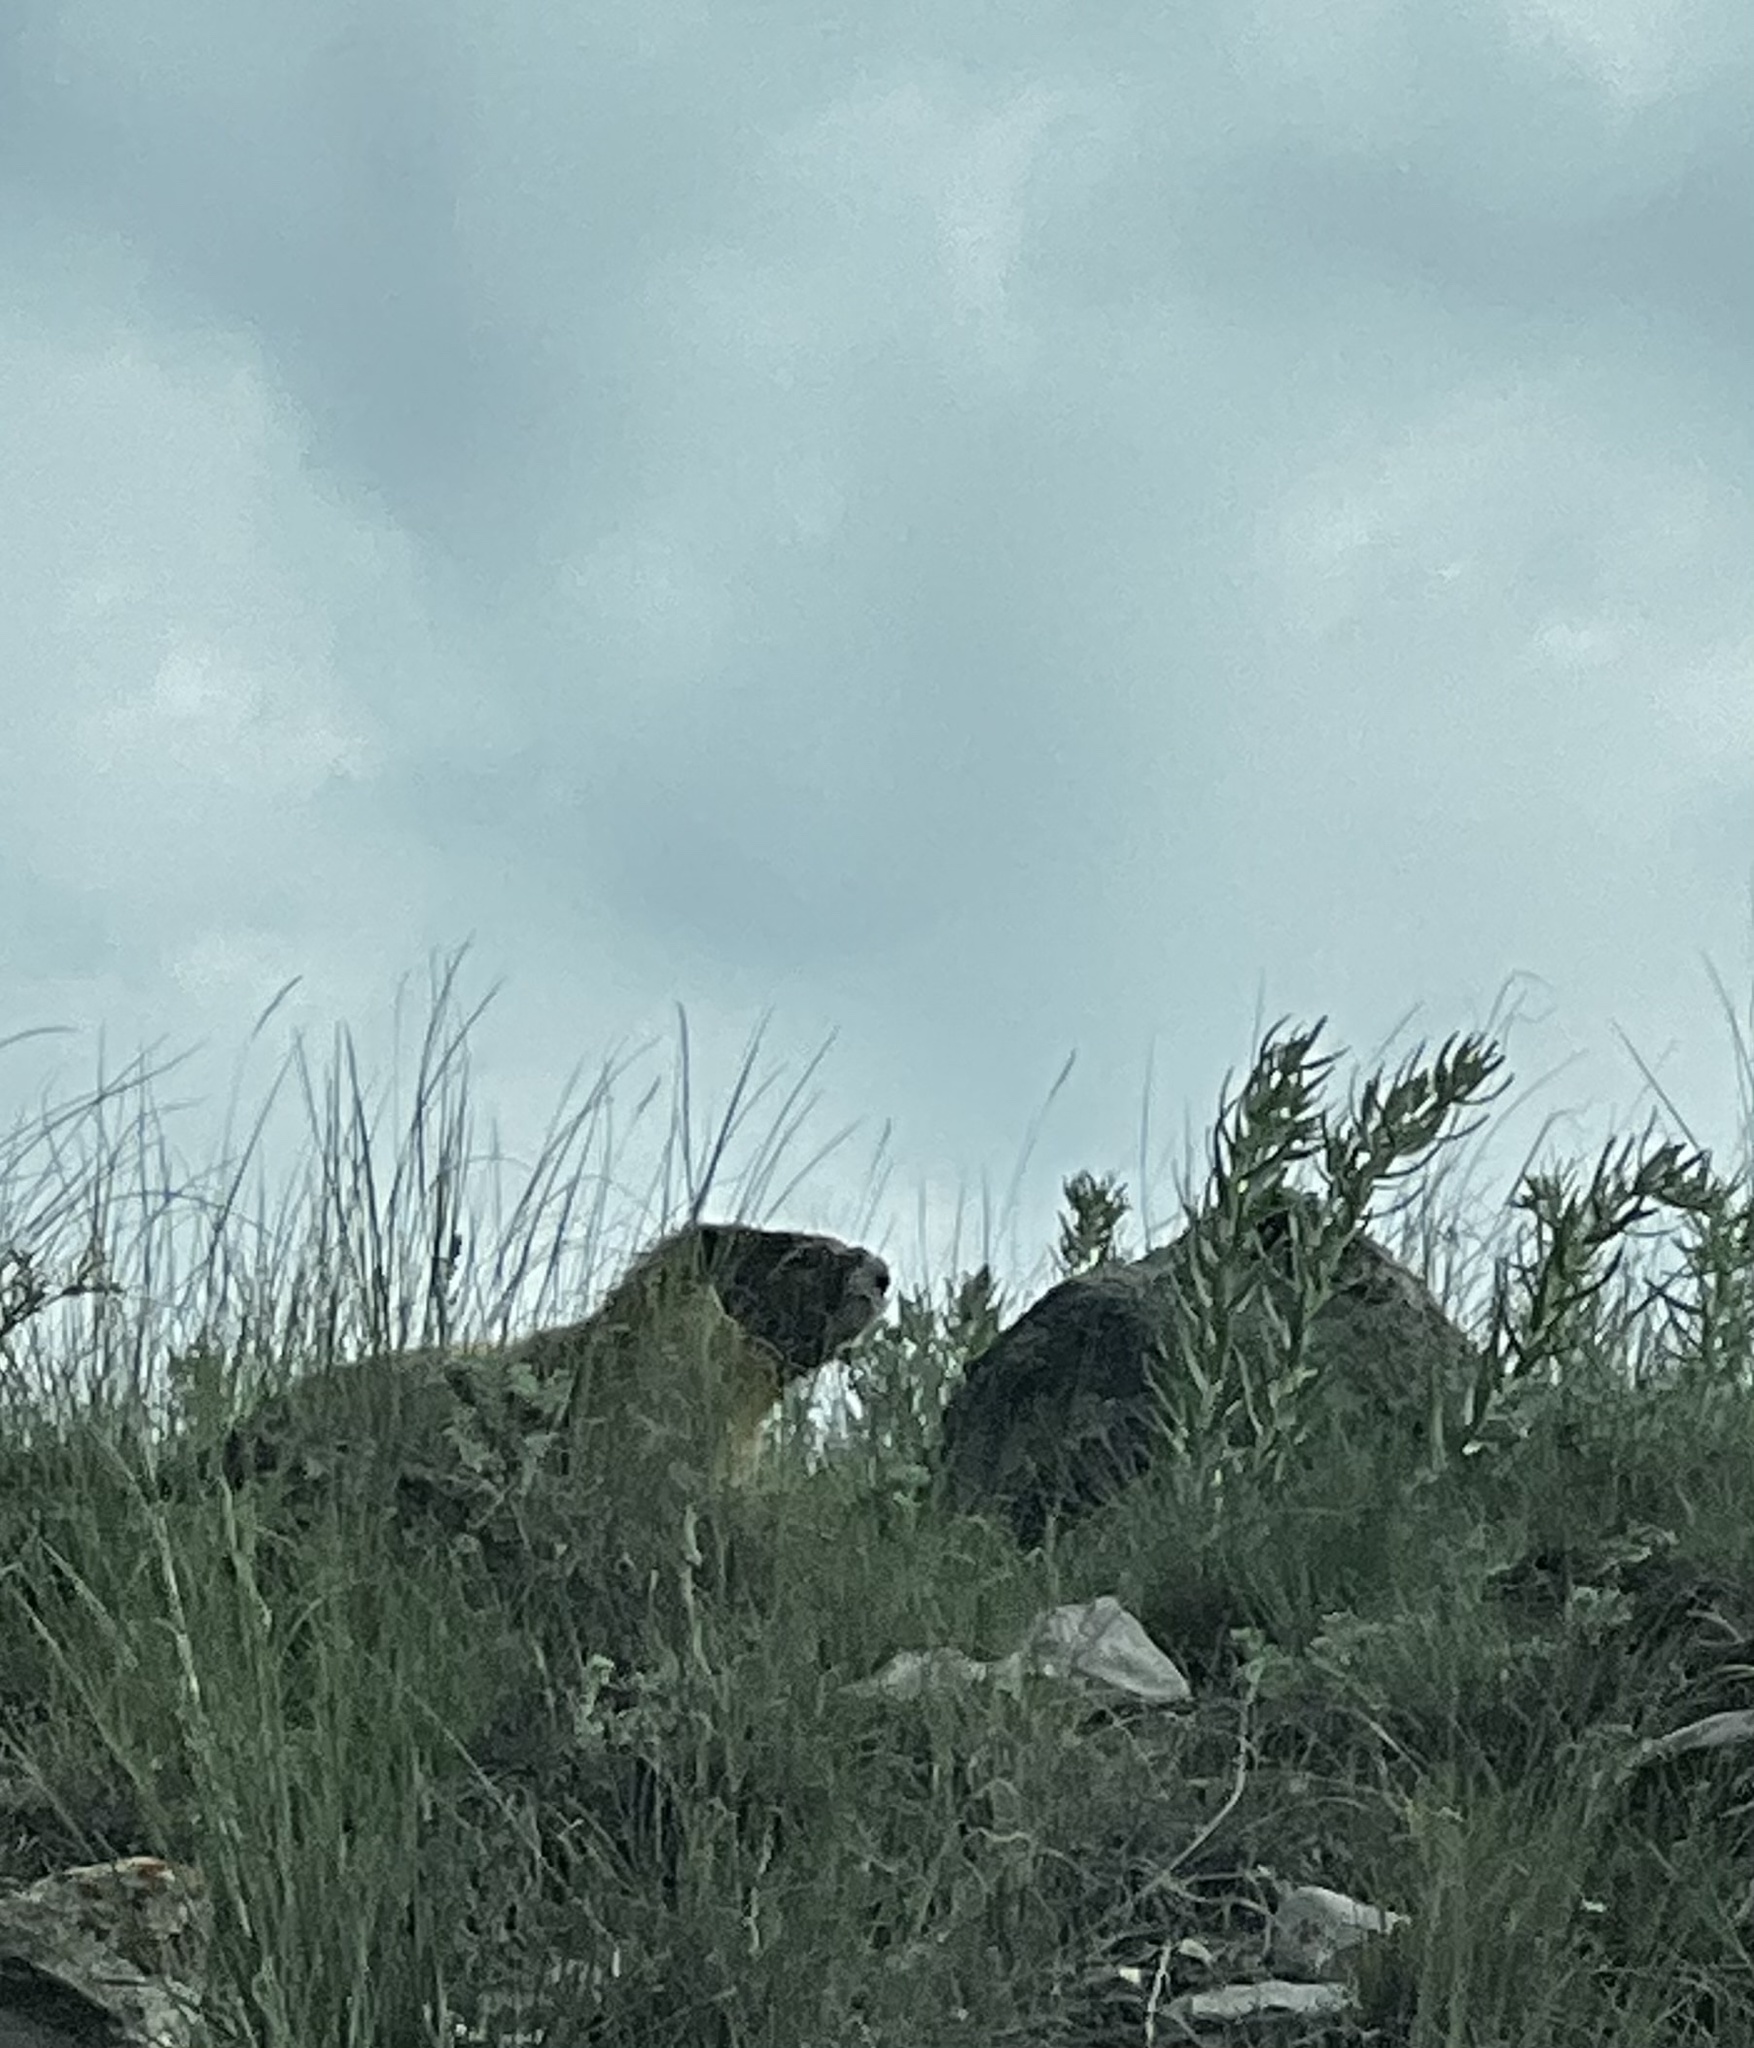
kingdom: Animalia
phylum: Chordata
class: Mammalia
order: Rodentia
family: Sciuridae
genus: Marmota
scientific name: Marmota flaviventris
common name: Yellow-bellied marmot
